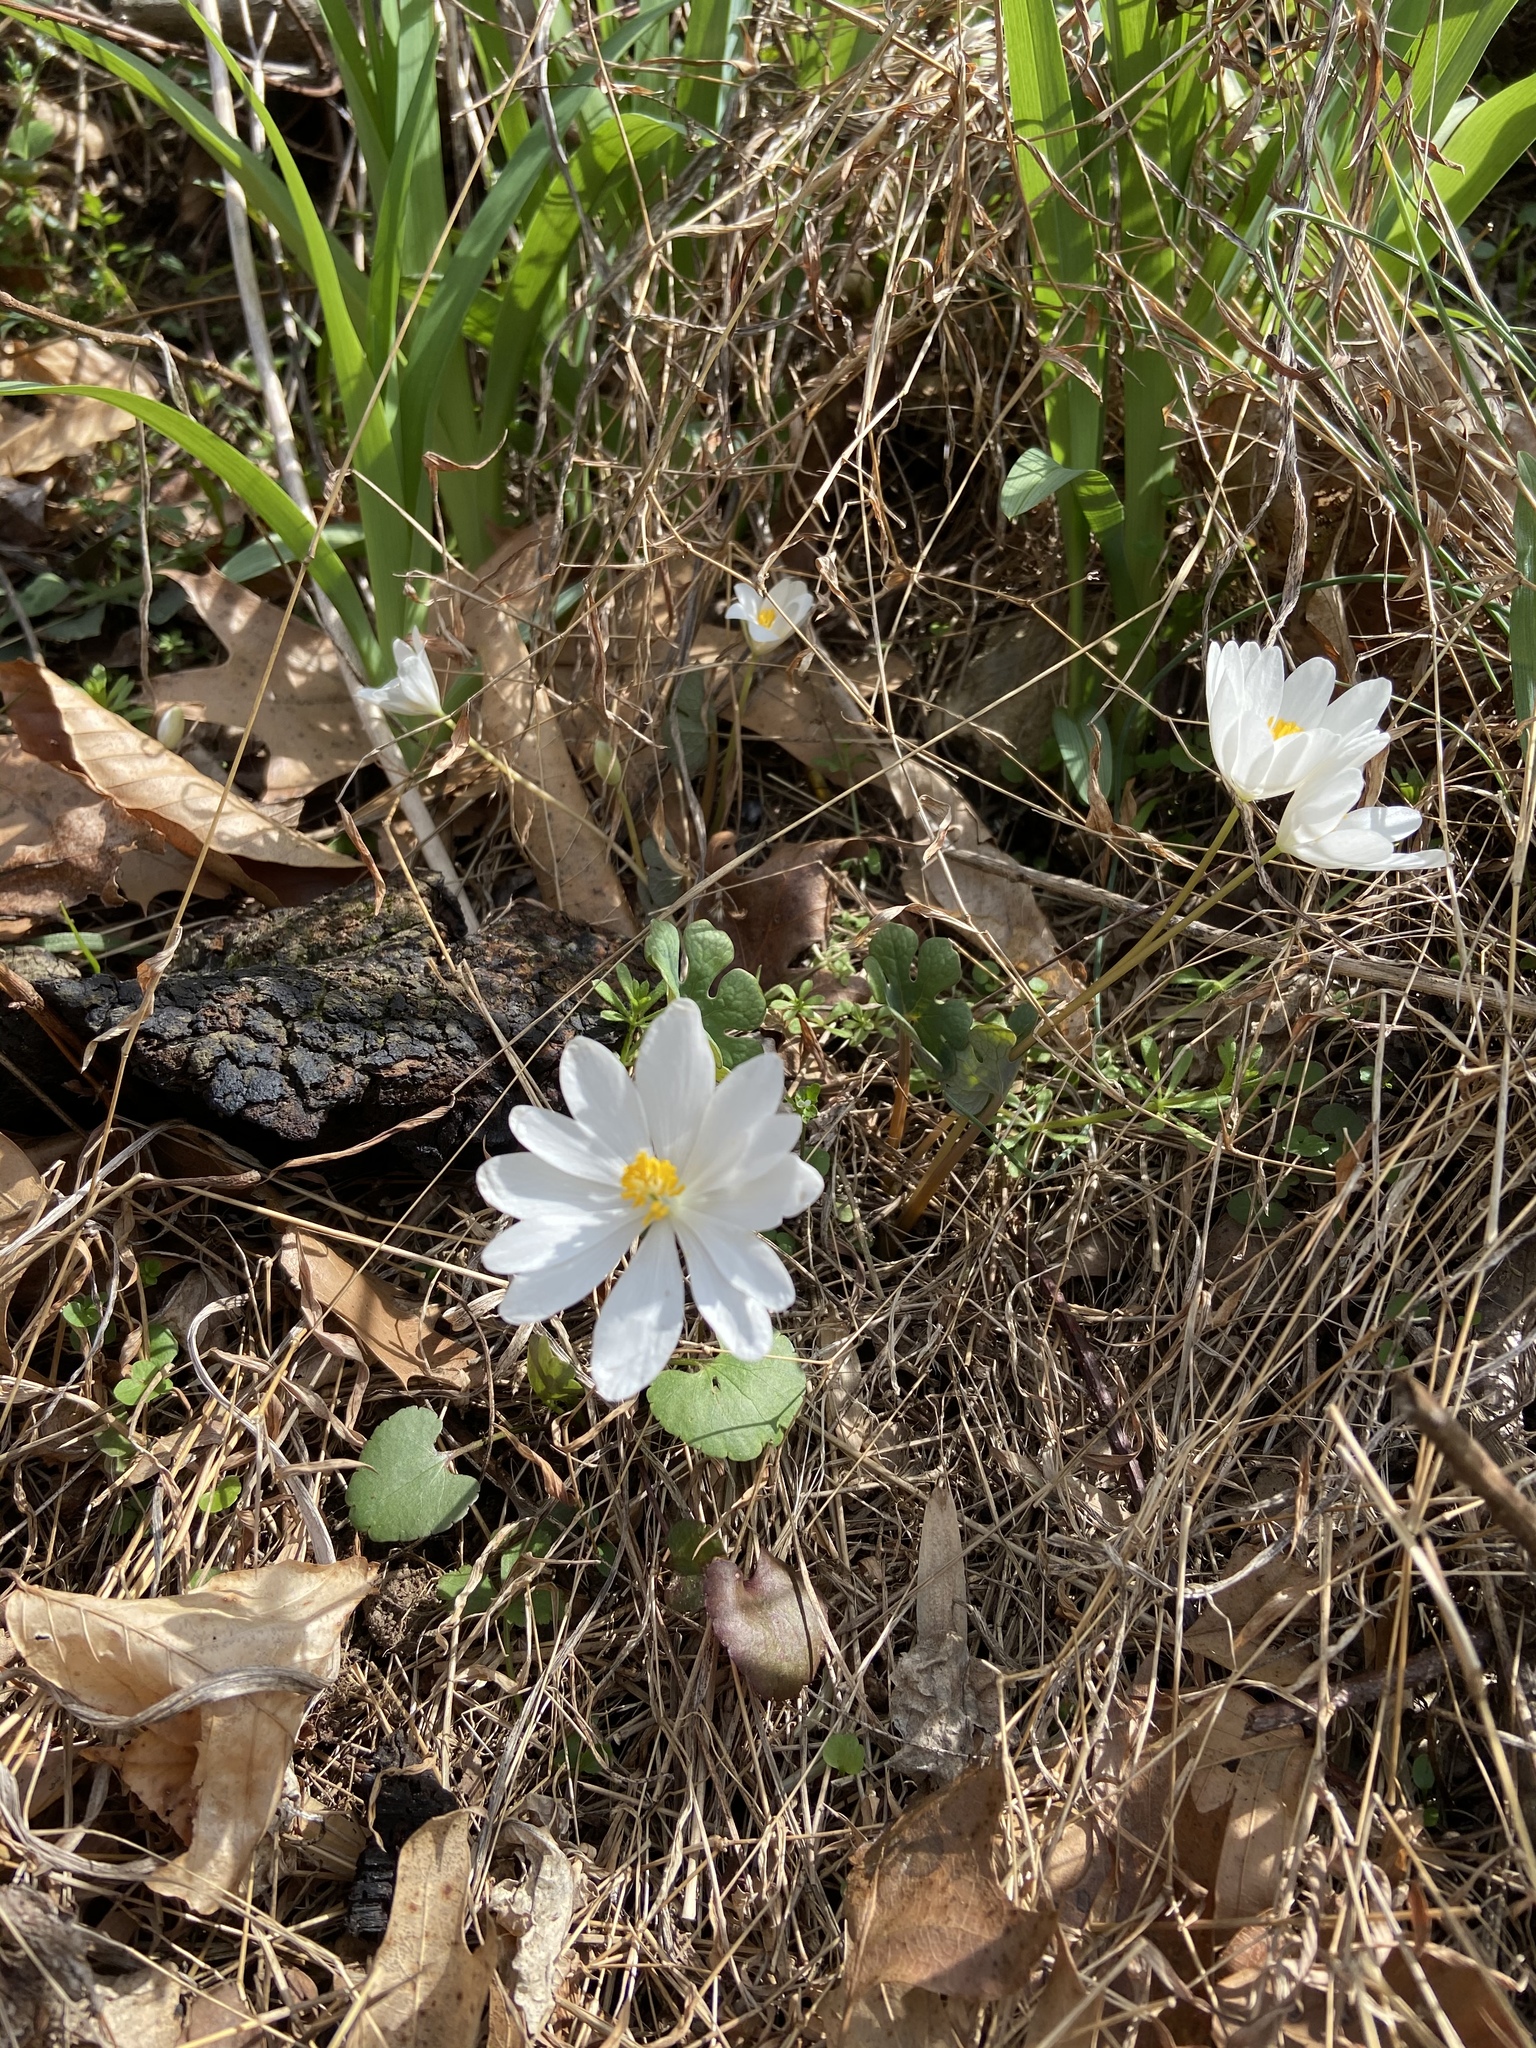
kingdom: Plantae
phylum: Tracheophyta
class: Magnoliopsida
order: Ranunculales
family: Papaveraceae
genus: Sanguinaria
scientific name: Sanguinaria canadensis
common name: Bloodroot
